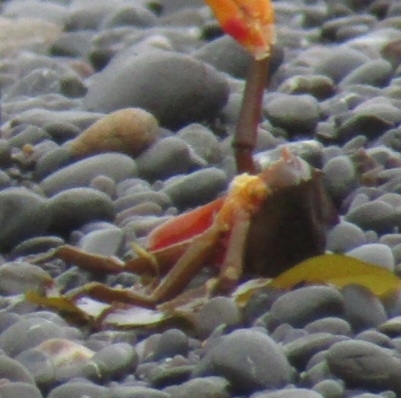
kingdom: Animalia
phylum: Arthropoda
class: Malacostraca
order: Decapoda
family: Epialtidae
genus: Pugettia
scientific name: Pugettia producta
